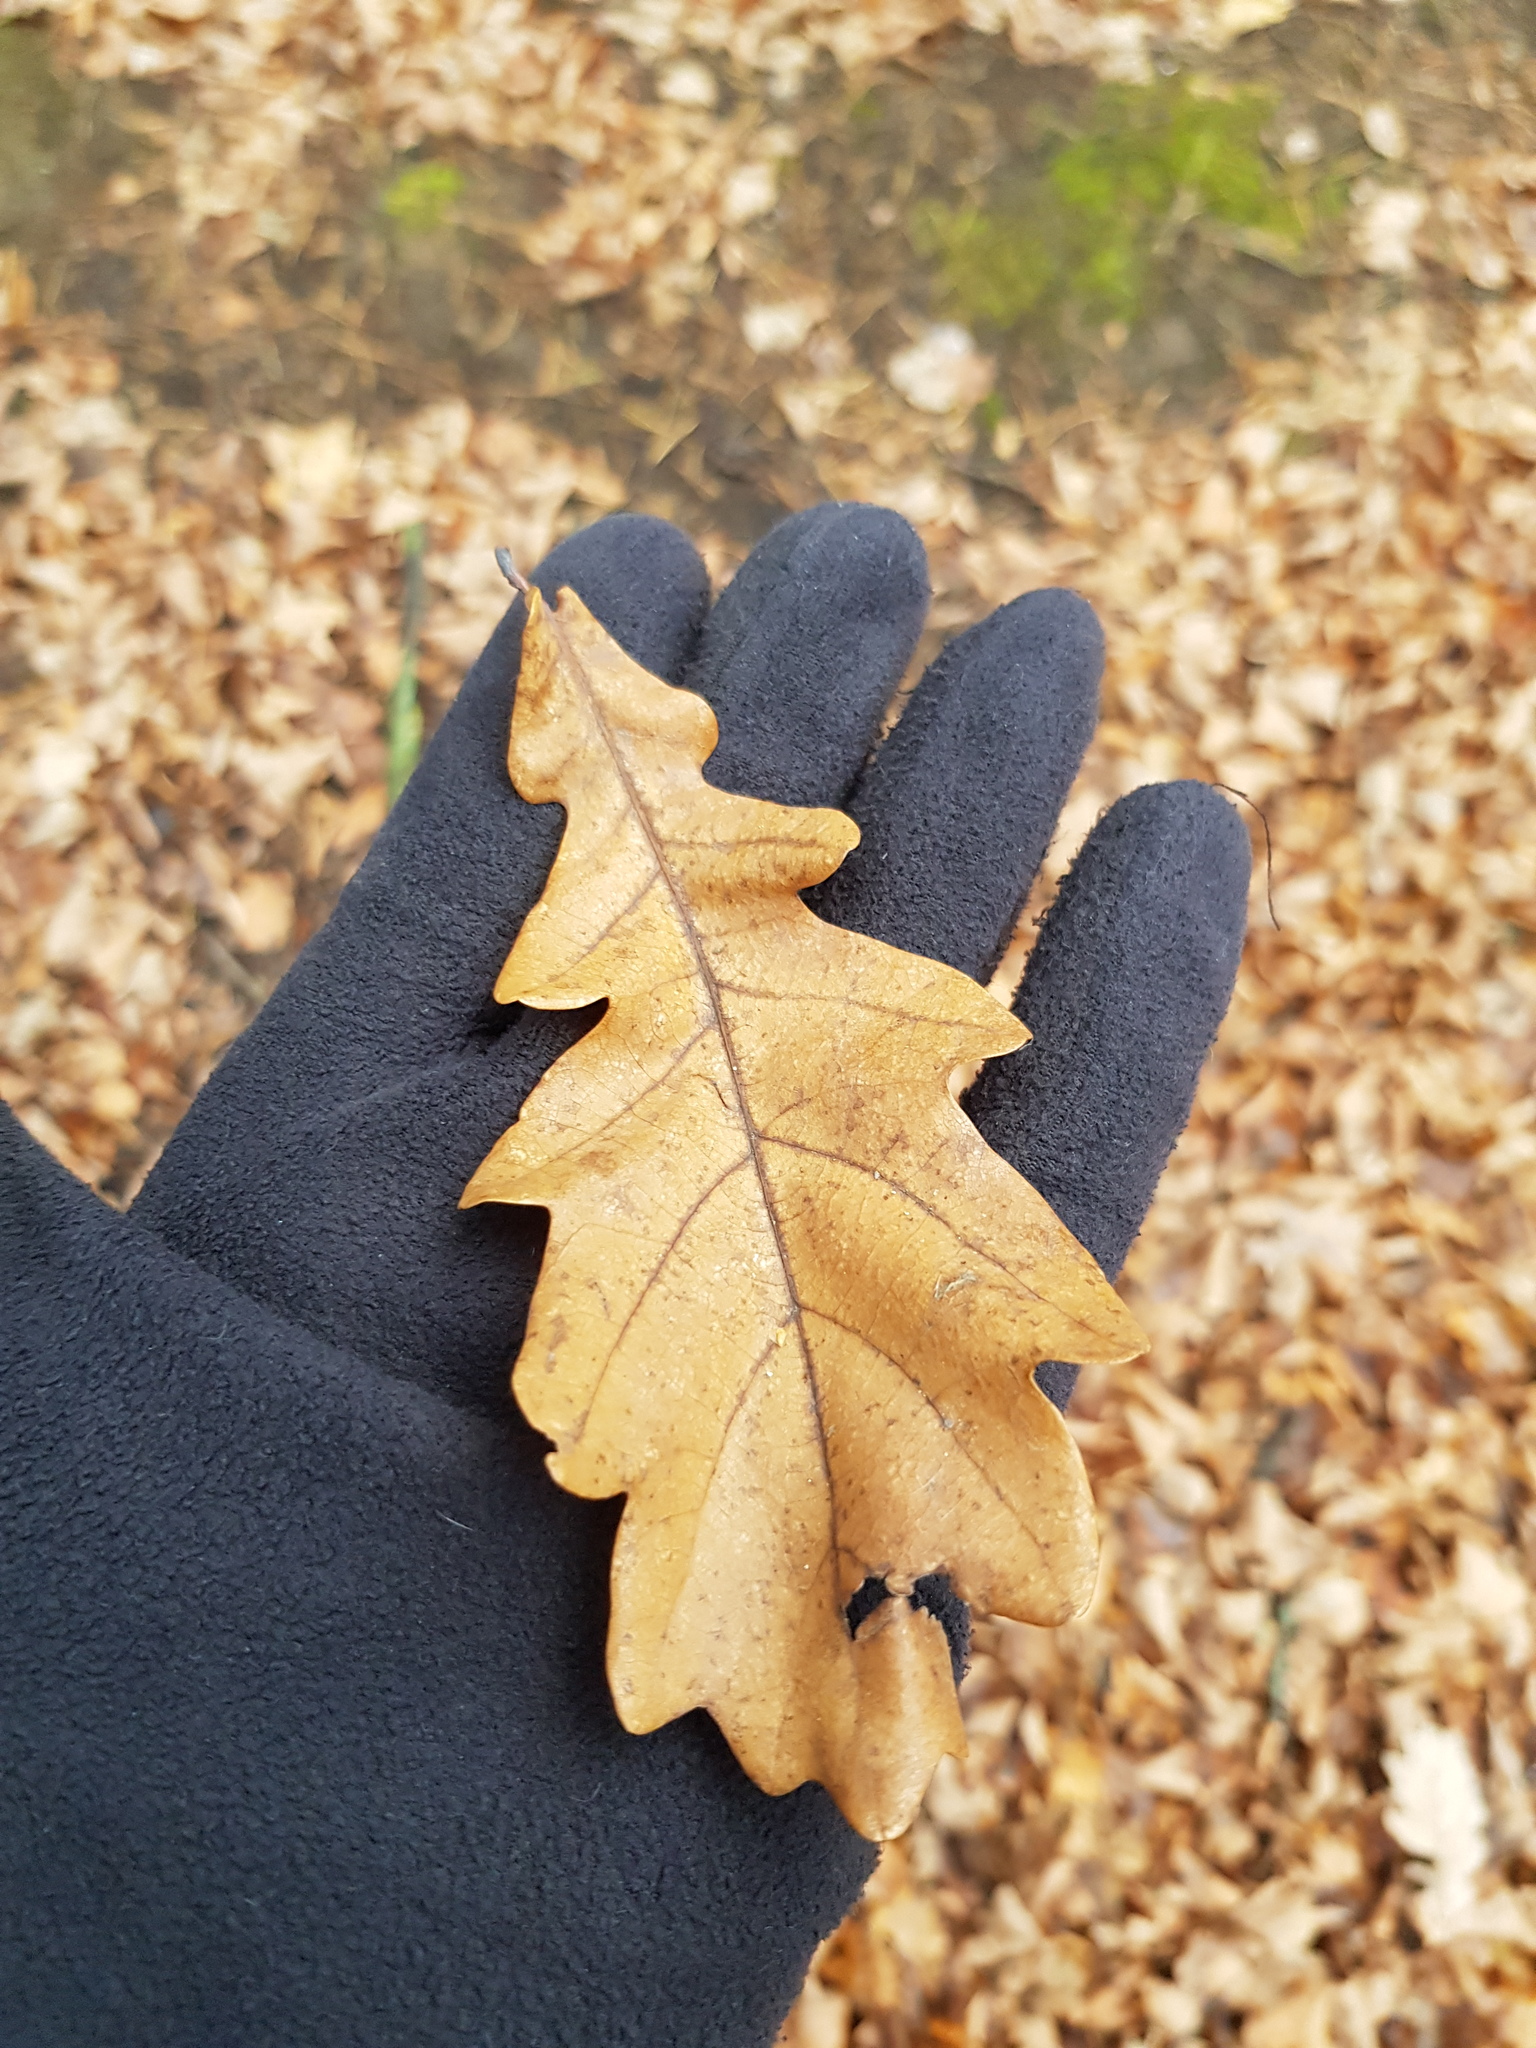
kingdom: Plantae
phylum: Tracheophyta
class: Magnoliopsida
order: Fagales
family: Fagaceae
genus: Quercus
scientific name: Quercus robur
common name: Pedunculate oak
